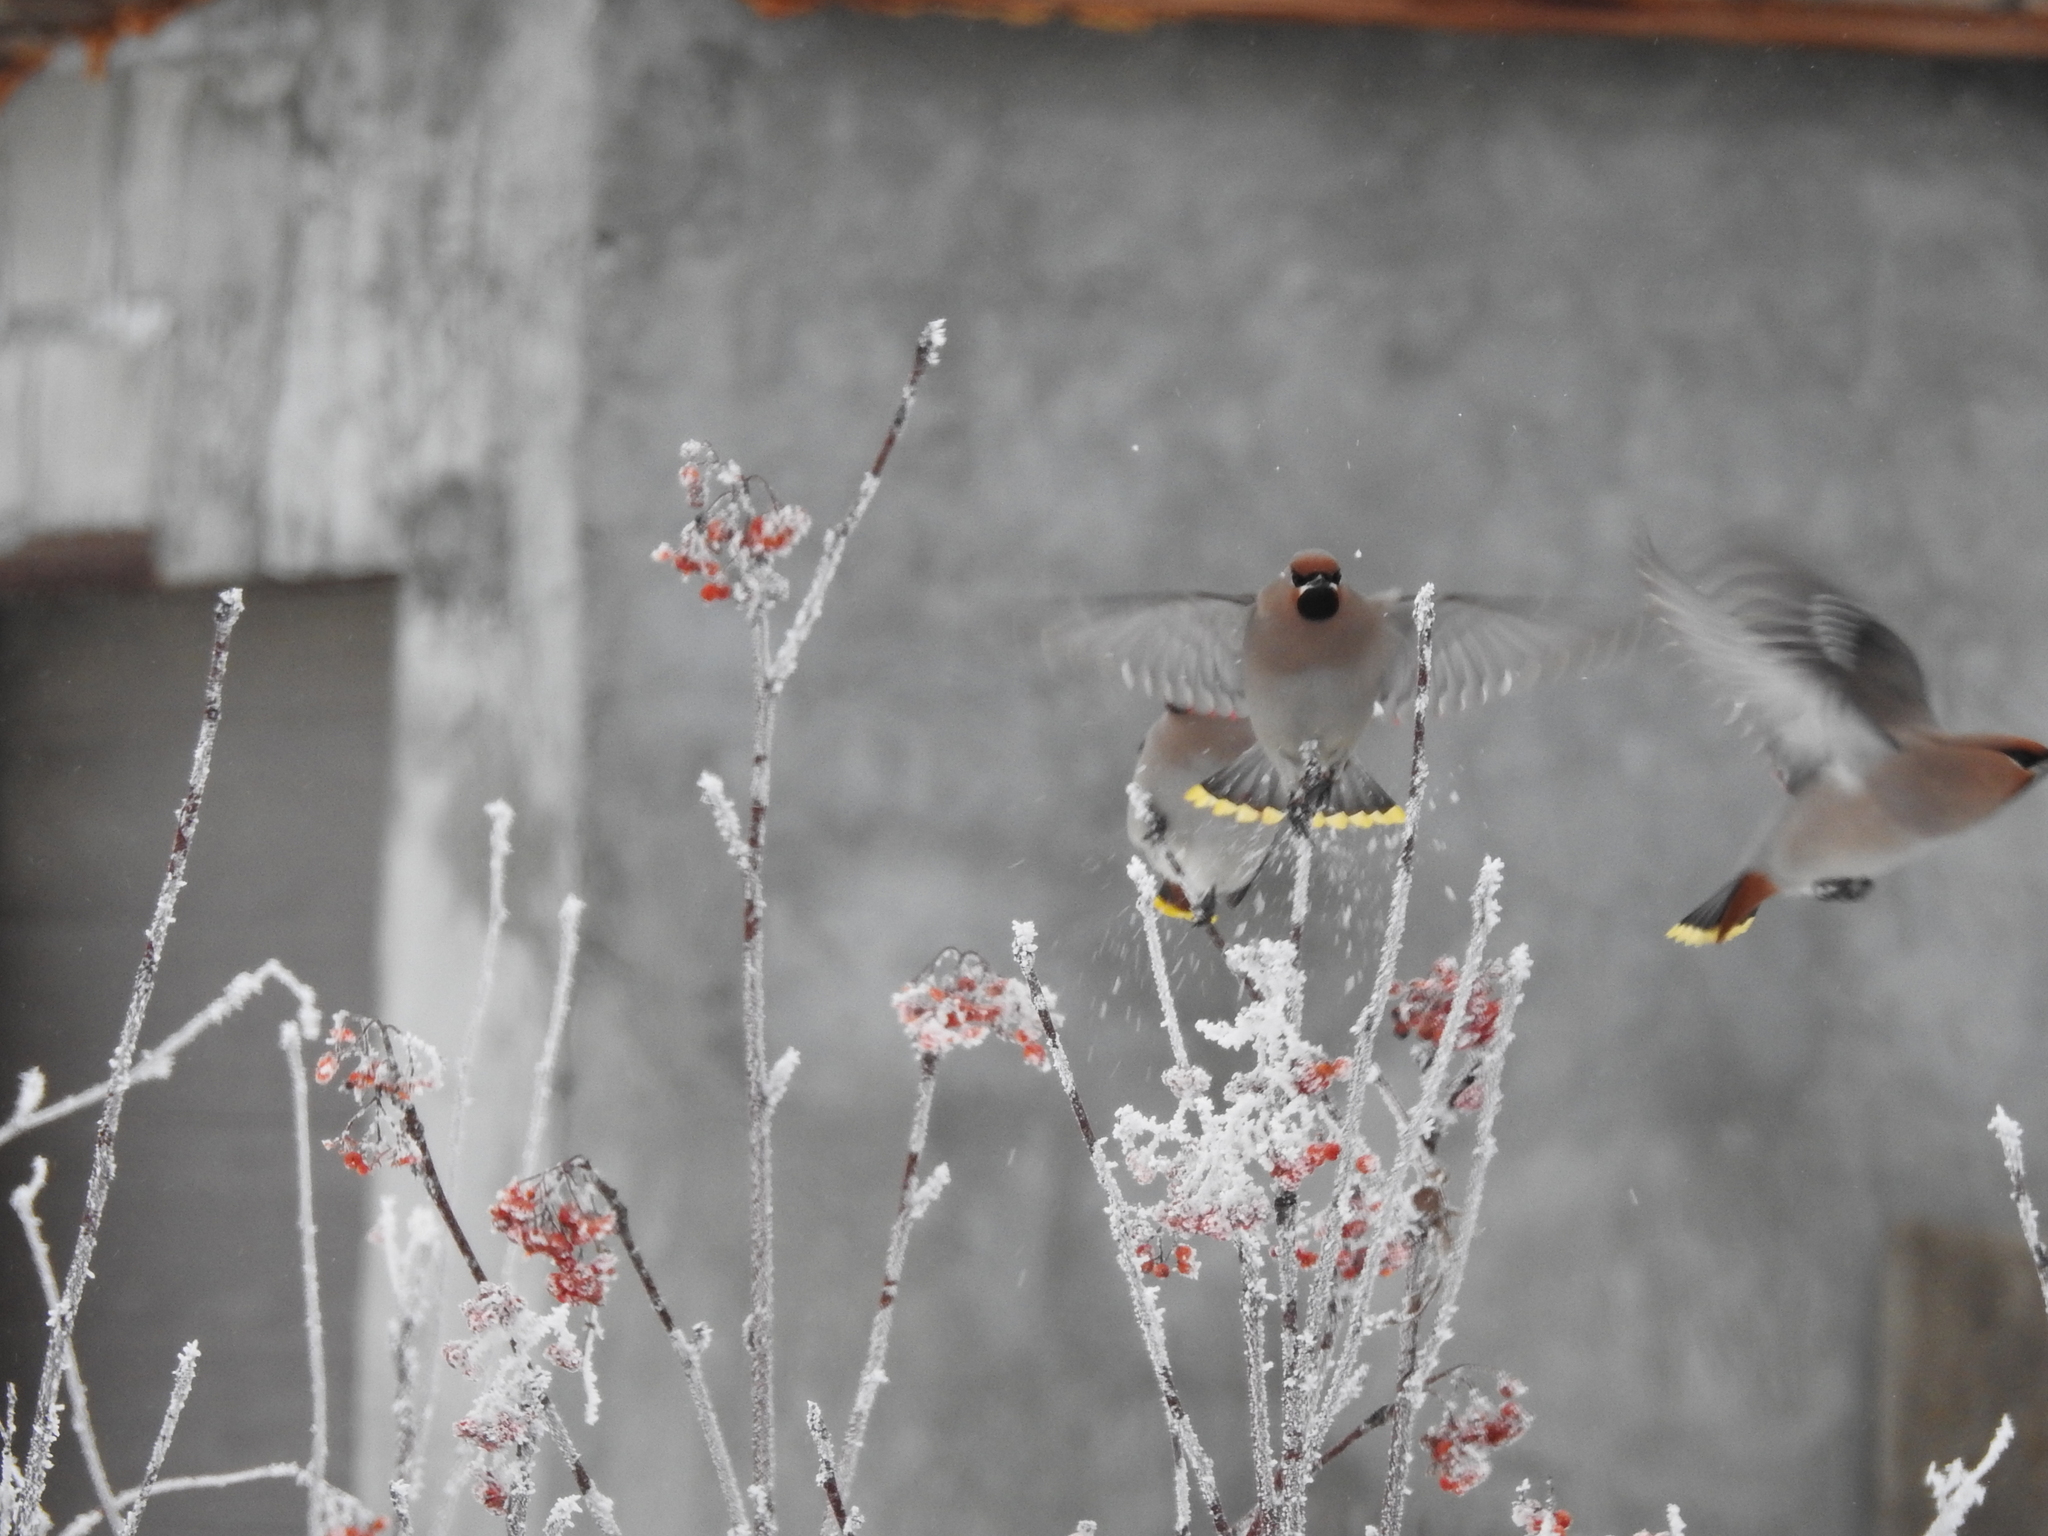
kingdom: Animalia
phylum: Chordata
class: Aves
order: Passeriformes
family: Bombycillidae
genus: Bombycilla
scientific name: Bombycilla garrulus
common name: Bohemian waxwing
